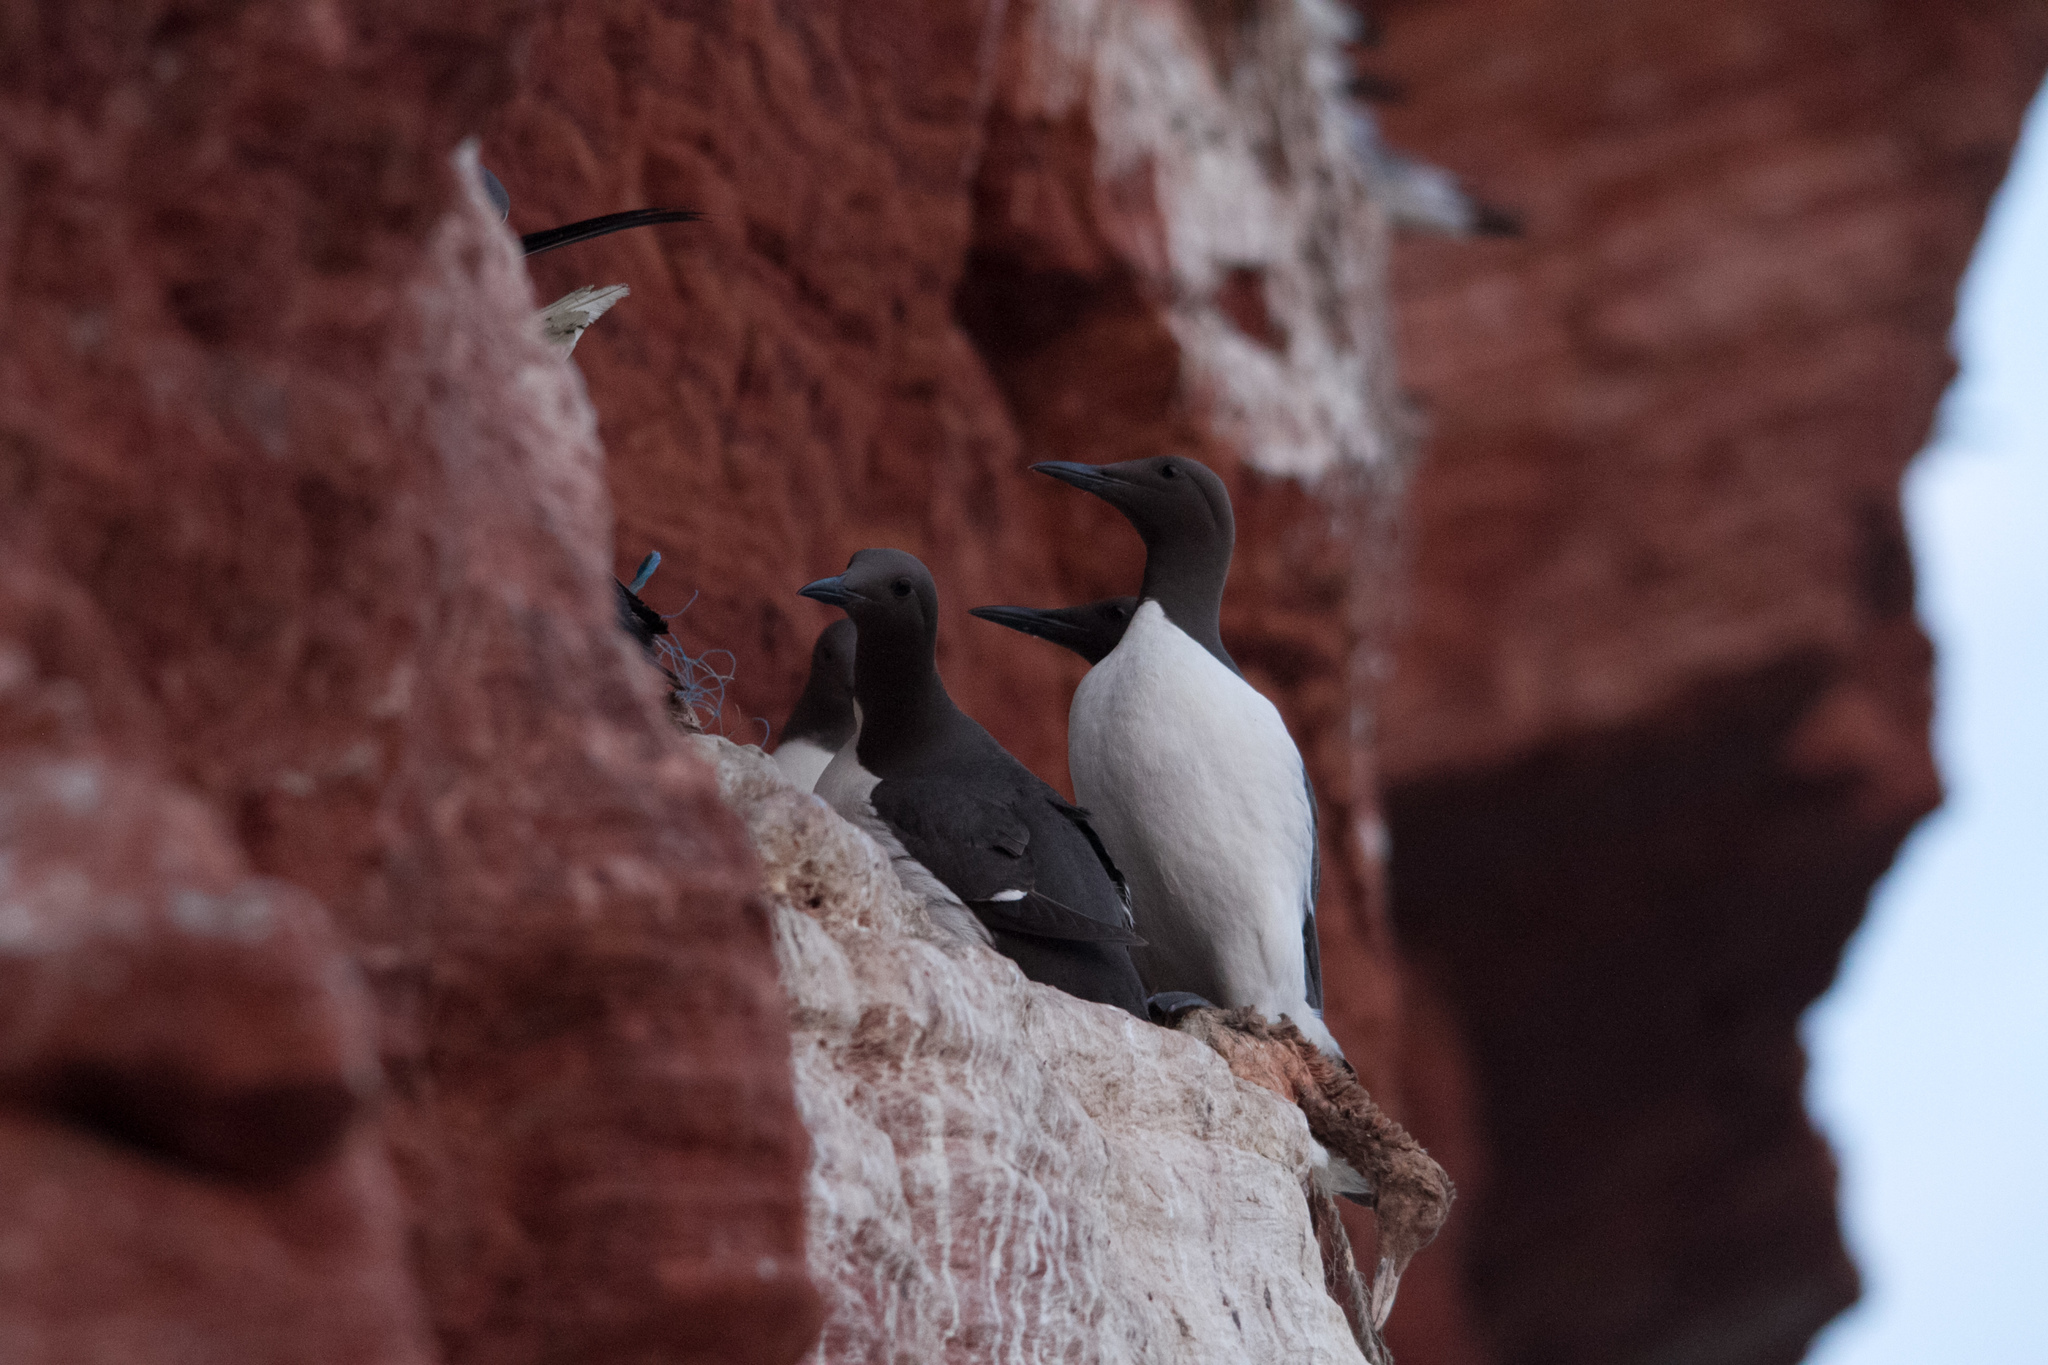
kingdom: Animalia
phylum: Chordata
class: Aves
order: Charadriiformes
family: Alcidae
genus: Uria
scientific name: Uria aalge
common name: Common murre
